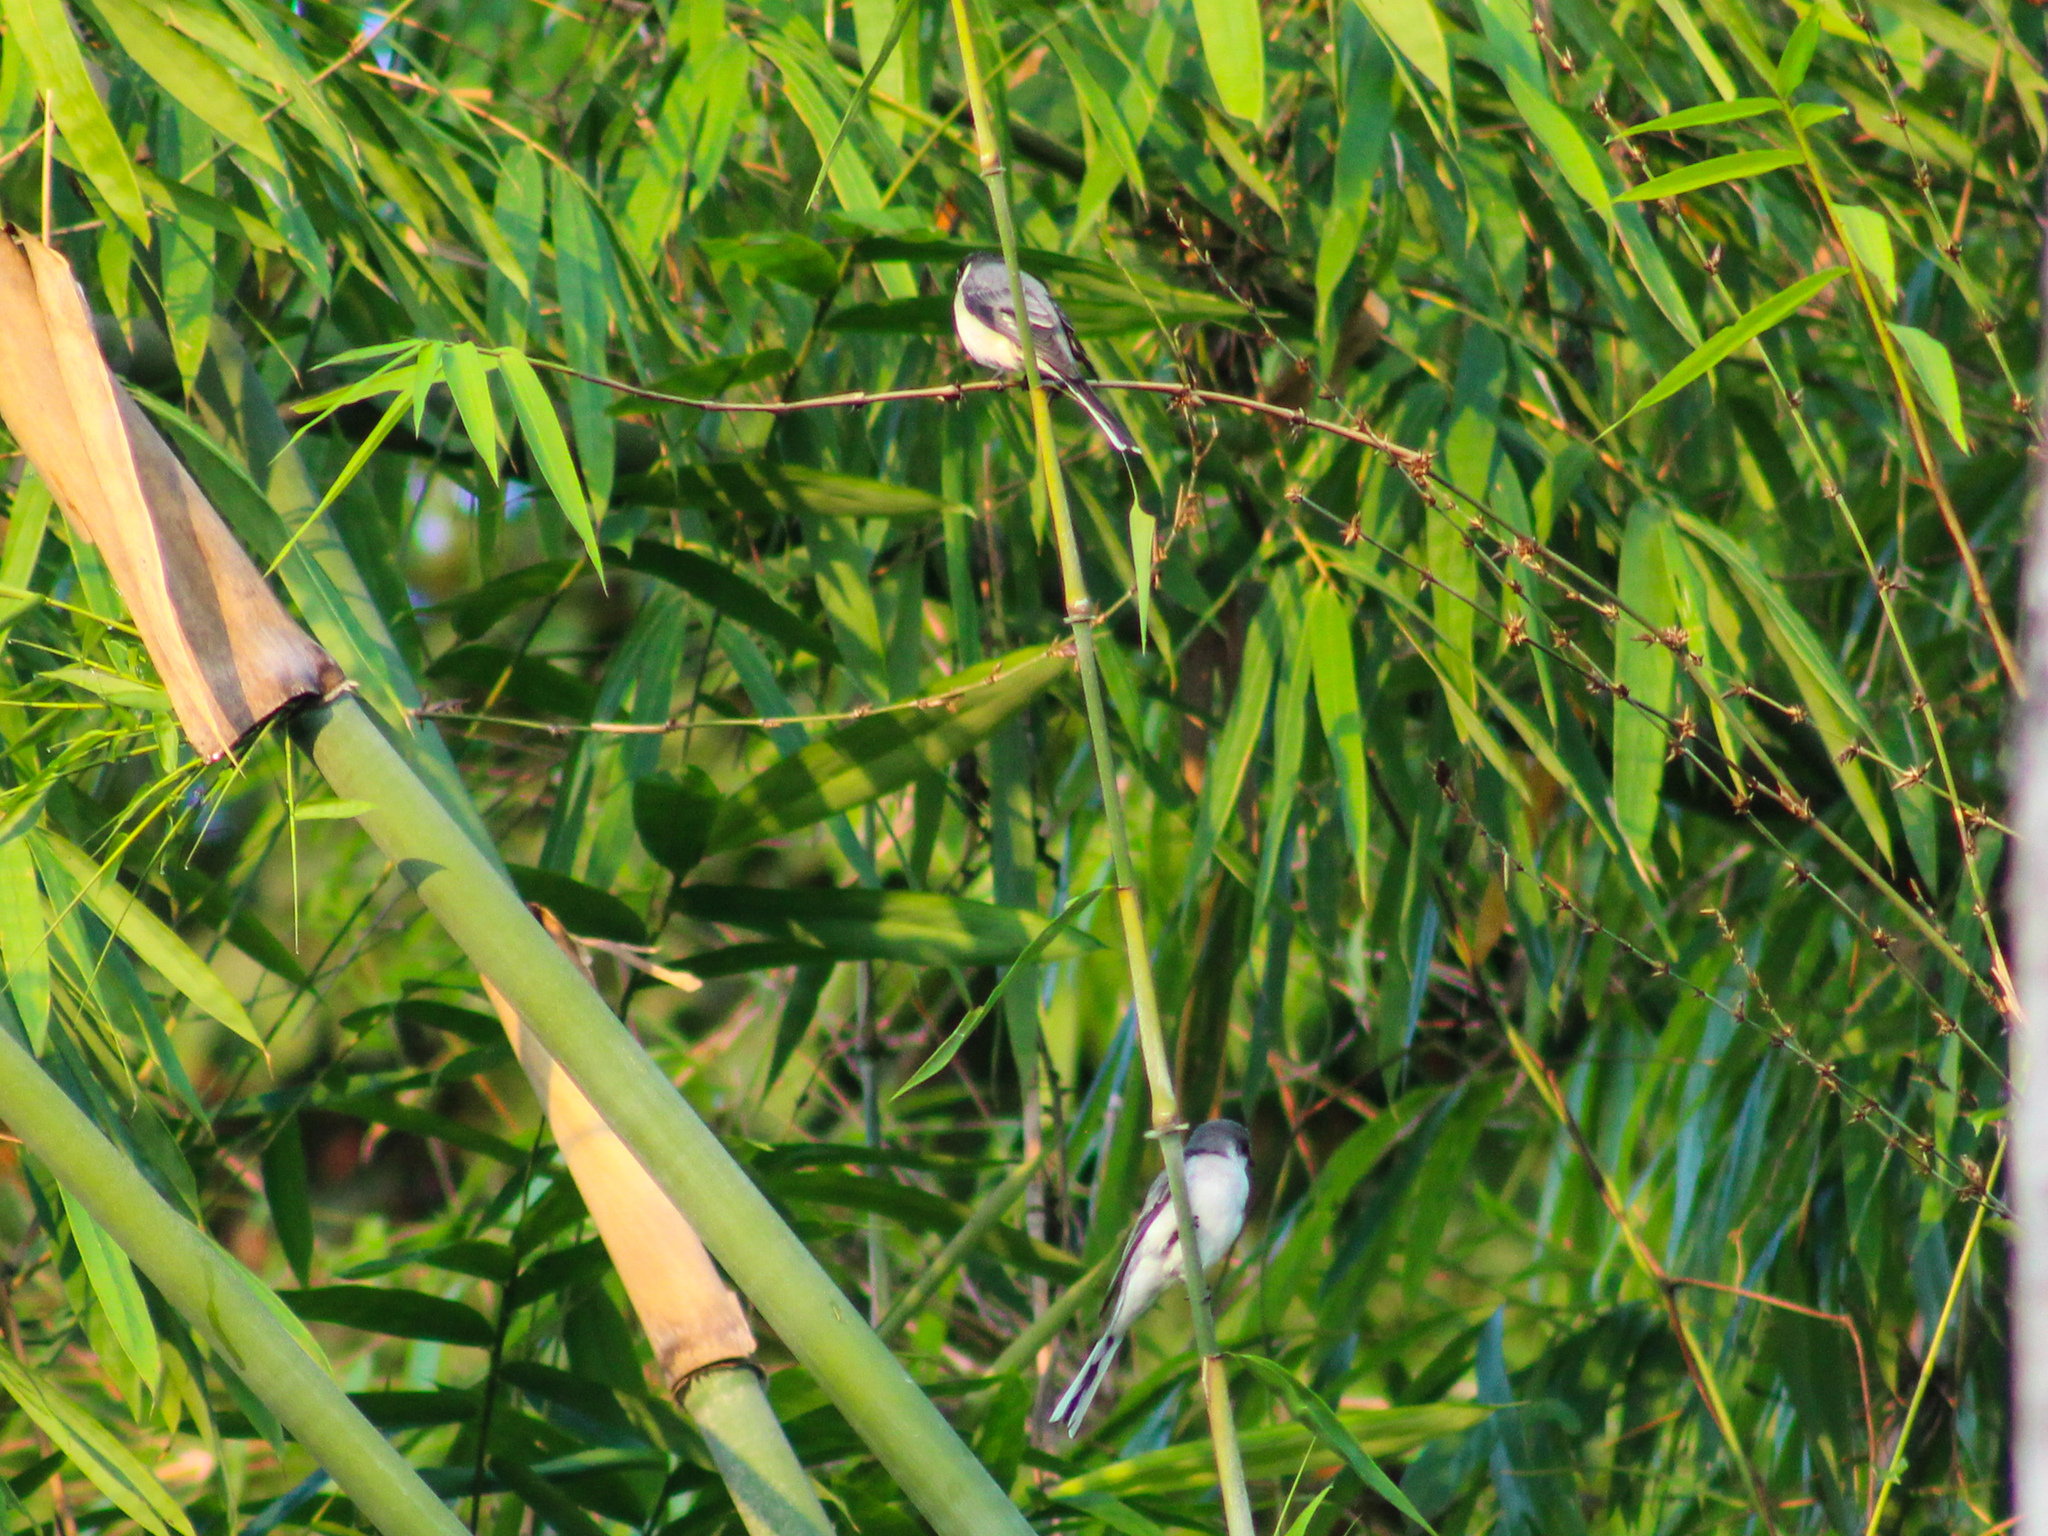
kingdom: Animalia
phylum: Chordata
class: Aves
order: Passeriformes
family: Campephagidae
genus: Pericrocotus
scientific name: Pericrocotus divaricatus
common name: Ashy minivet
